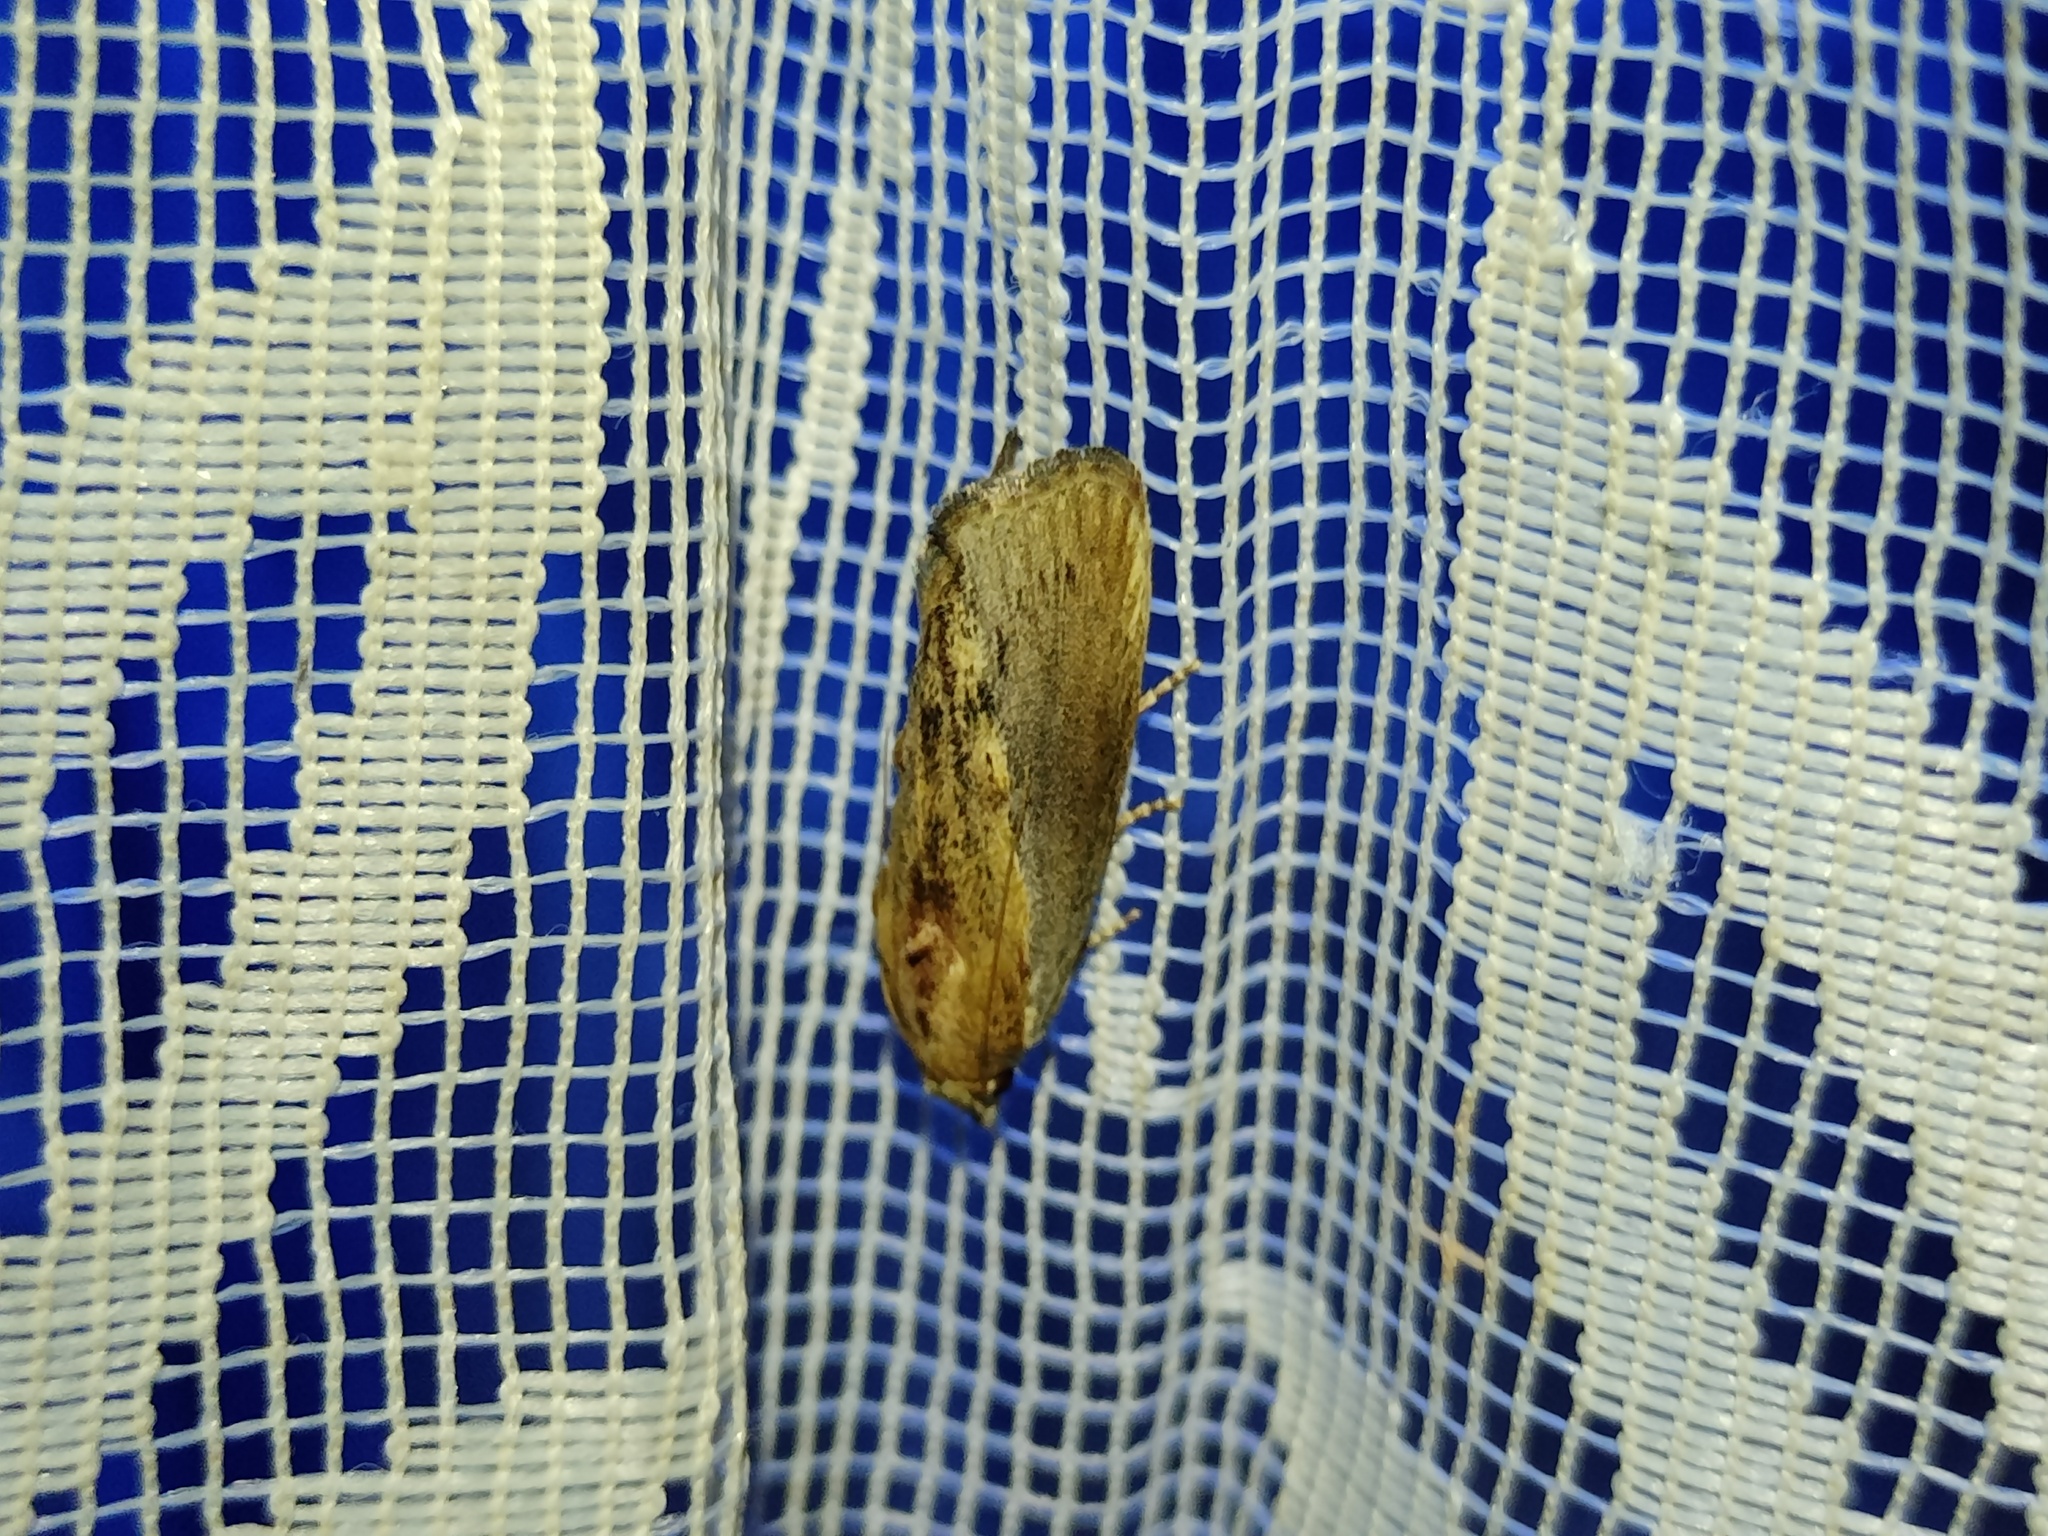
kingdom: Animalia
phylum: Arthropoda
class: Insecta
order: Lepidoptera
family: Pyralidae
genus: Galleria
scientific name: Galleria mellonella
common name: Greater wax moth
